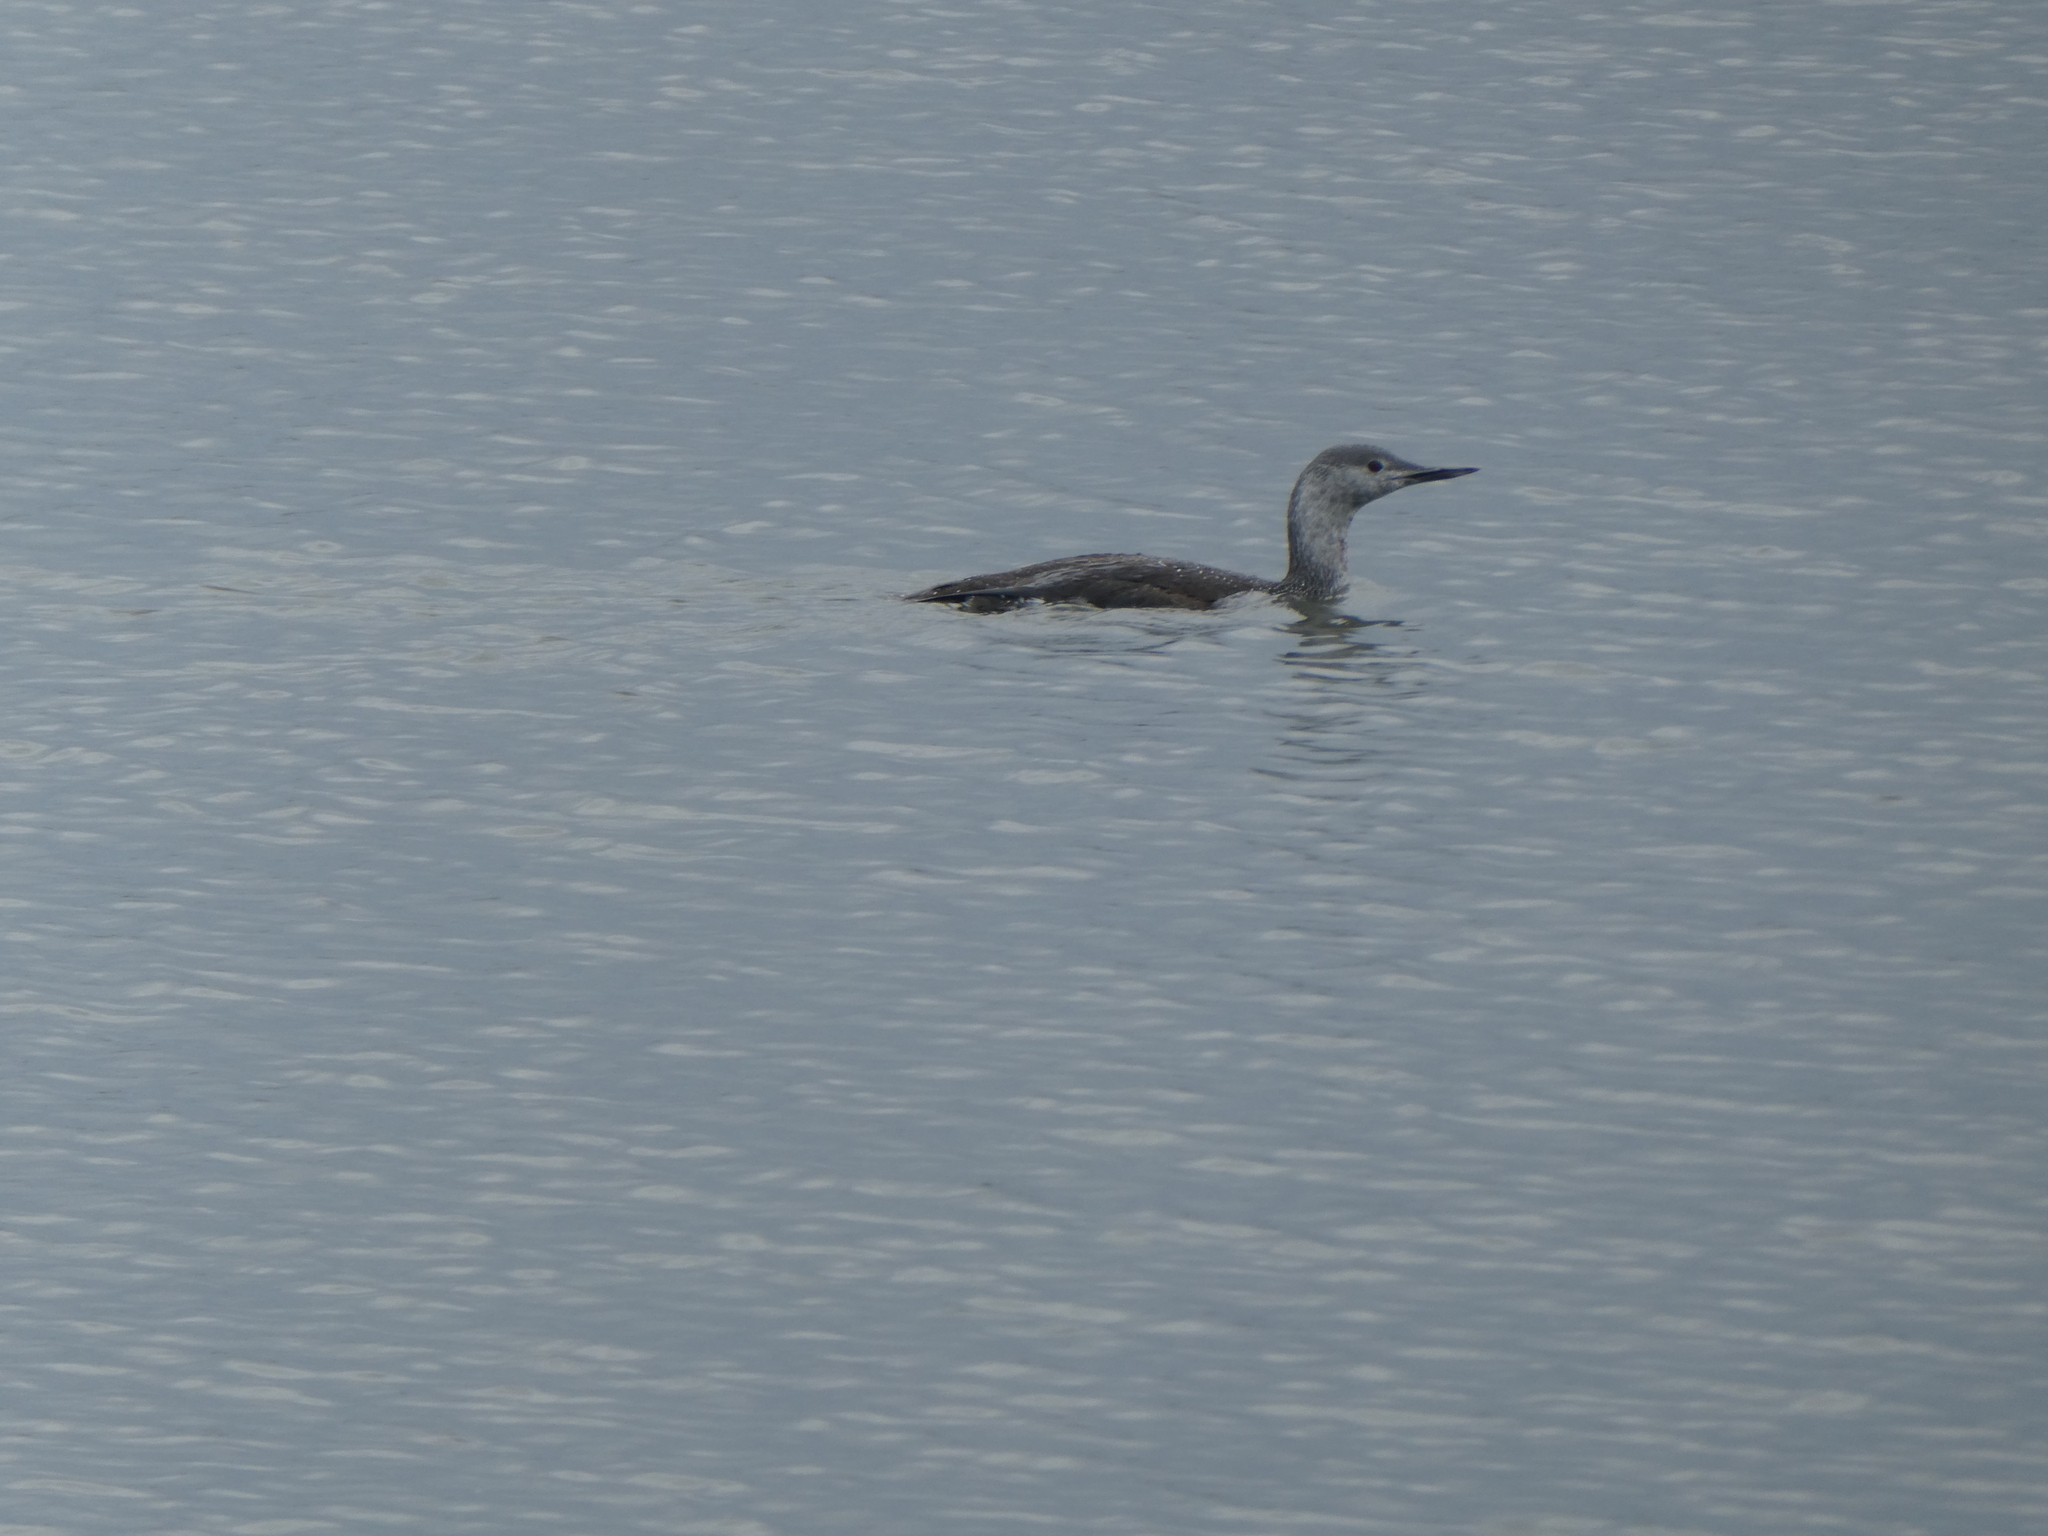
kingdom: Animalia
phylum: Chordata
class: Aves
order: Gaviiformes
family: Gaviidae
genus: Gavia
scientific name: Gavia stellata
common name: Red-throated loon
